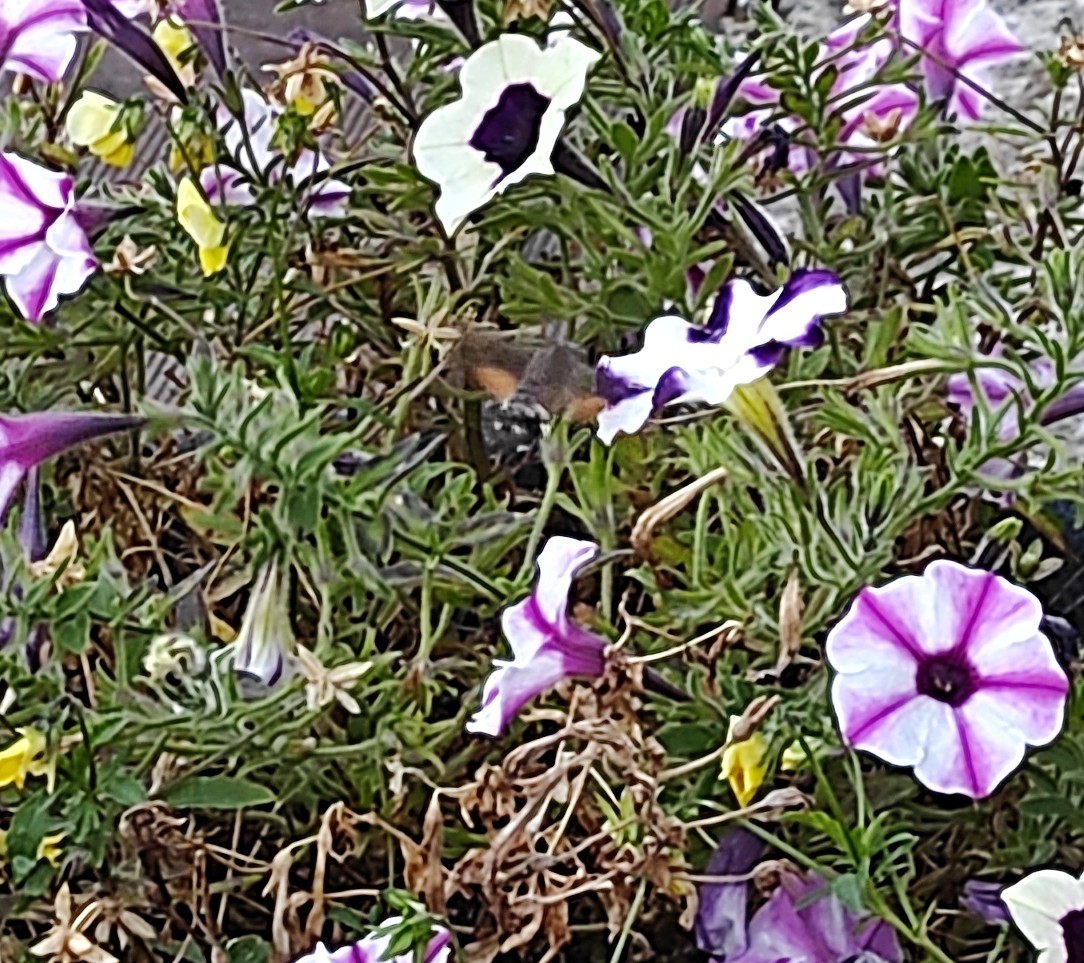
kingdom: Animalia
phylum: Arthropoda
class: Insecta
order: Lepidoptera
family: Sphingidae
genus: Macroglossum
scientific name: Macroglossum stellatarum
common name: Humming-bird hawk-moth
